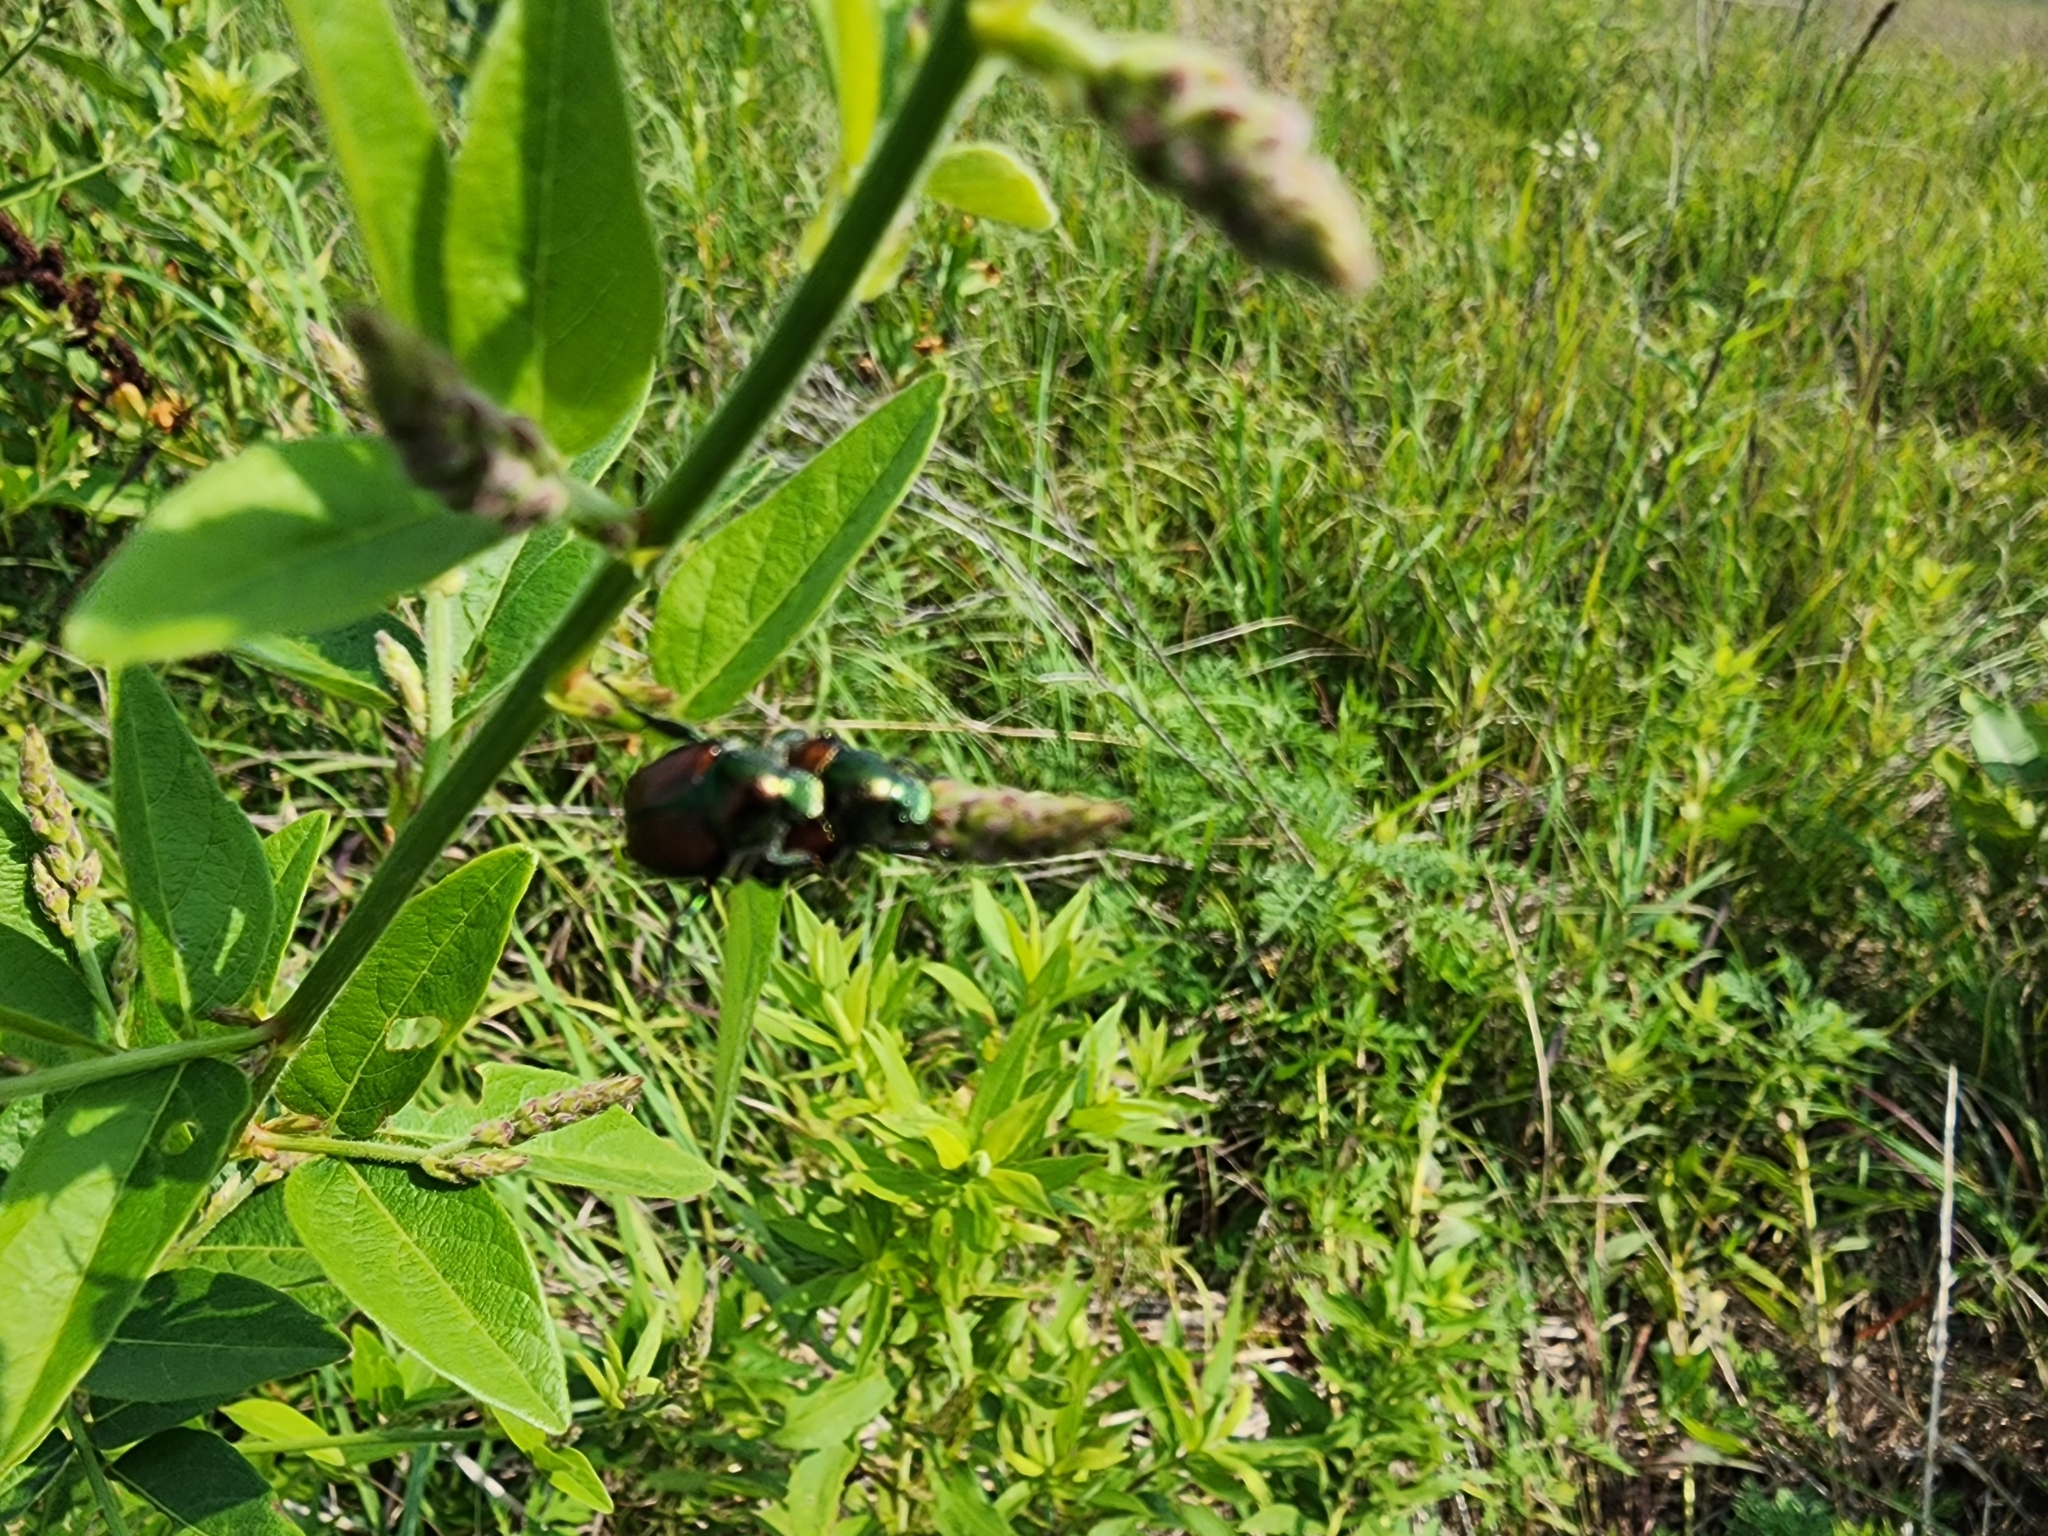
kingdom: Animalia
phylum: Arthropoda
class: Insecta
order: Coleoptera
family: Scarabaeidae
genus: Popillia
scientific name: Popillia japonica
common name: Japanese beetle
